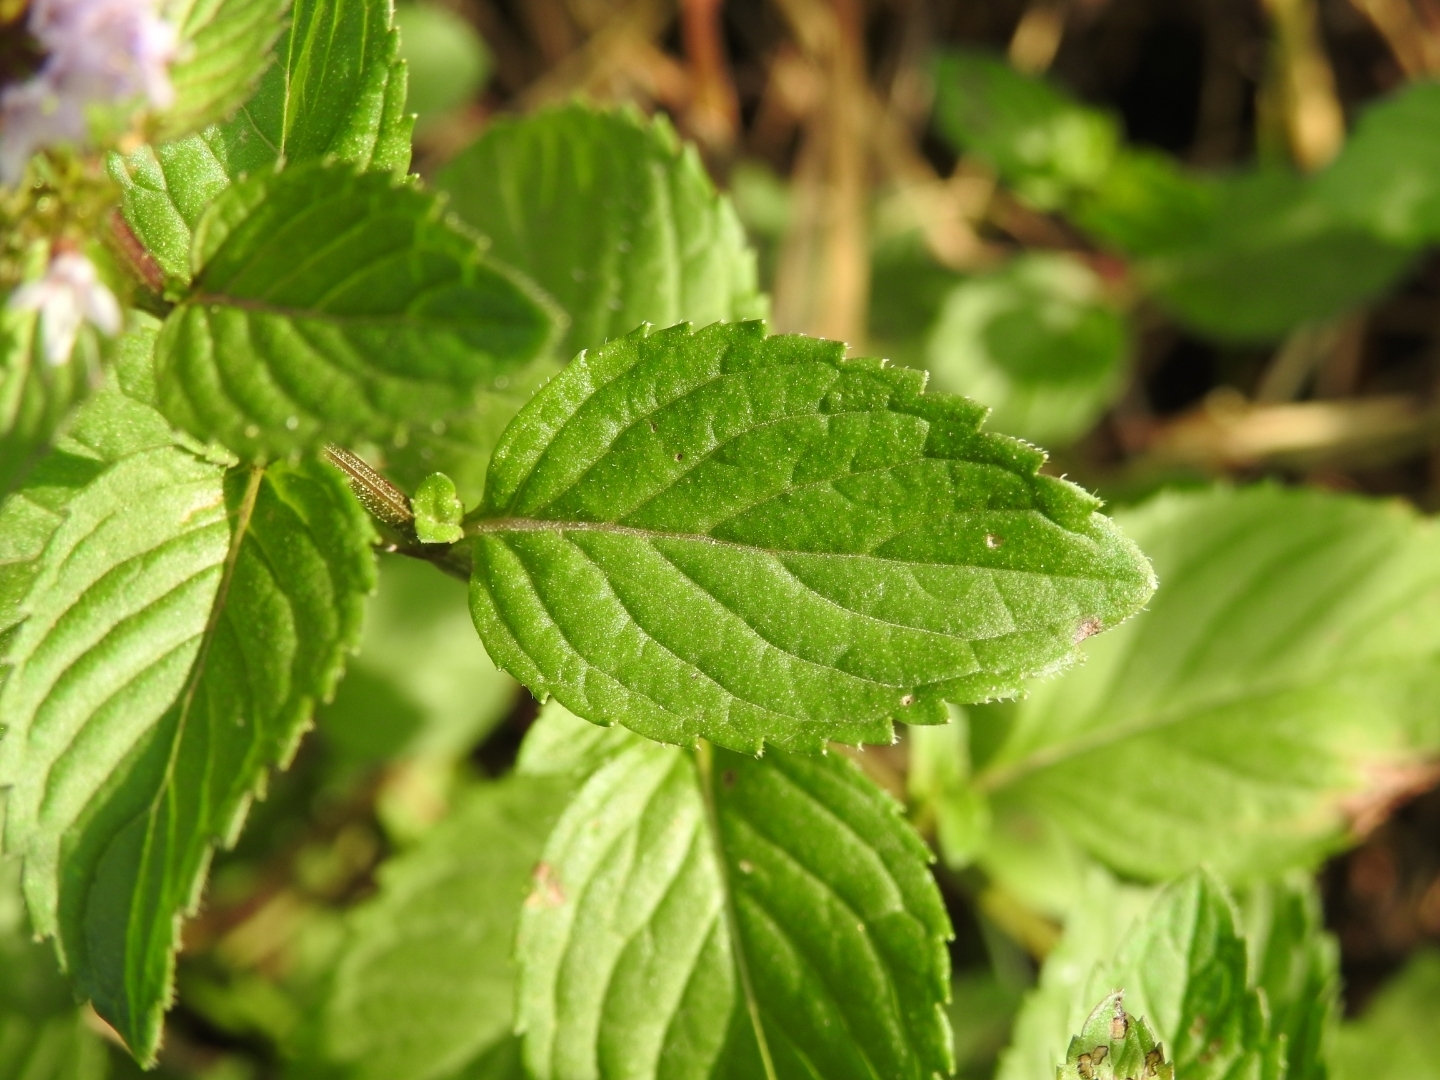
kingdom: Plantae
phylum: Tracheophyta
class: Magnoliopsida
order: Lamiales
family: Lamiaceae
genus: Mentha
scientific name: Mentha aquatica
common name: Water mint
